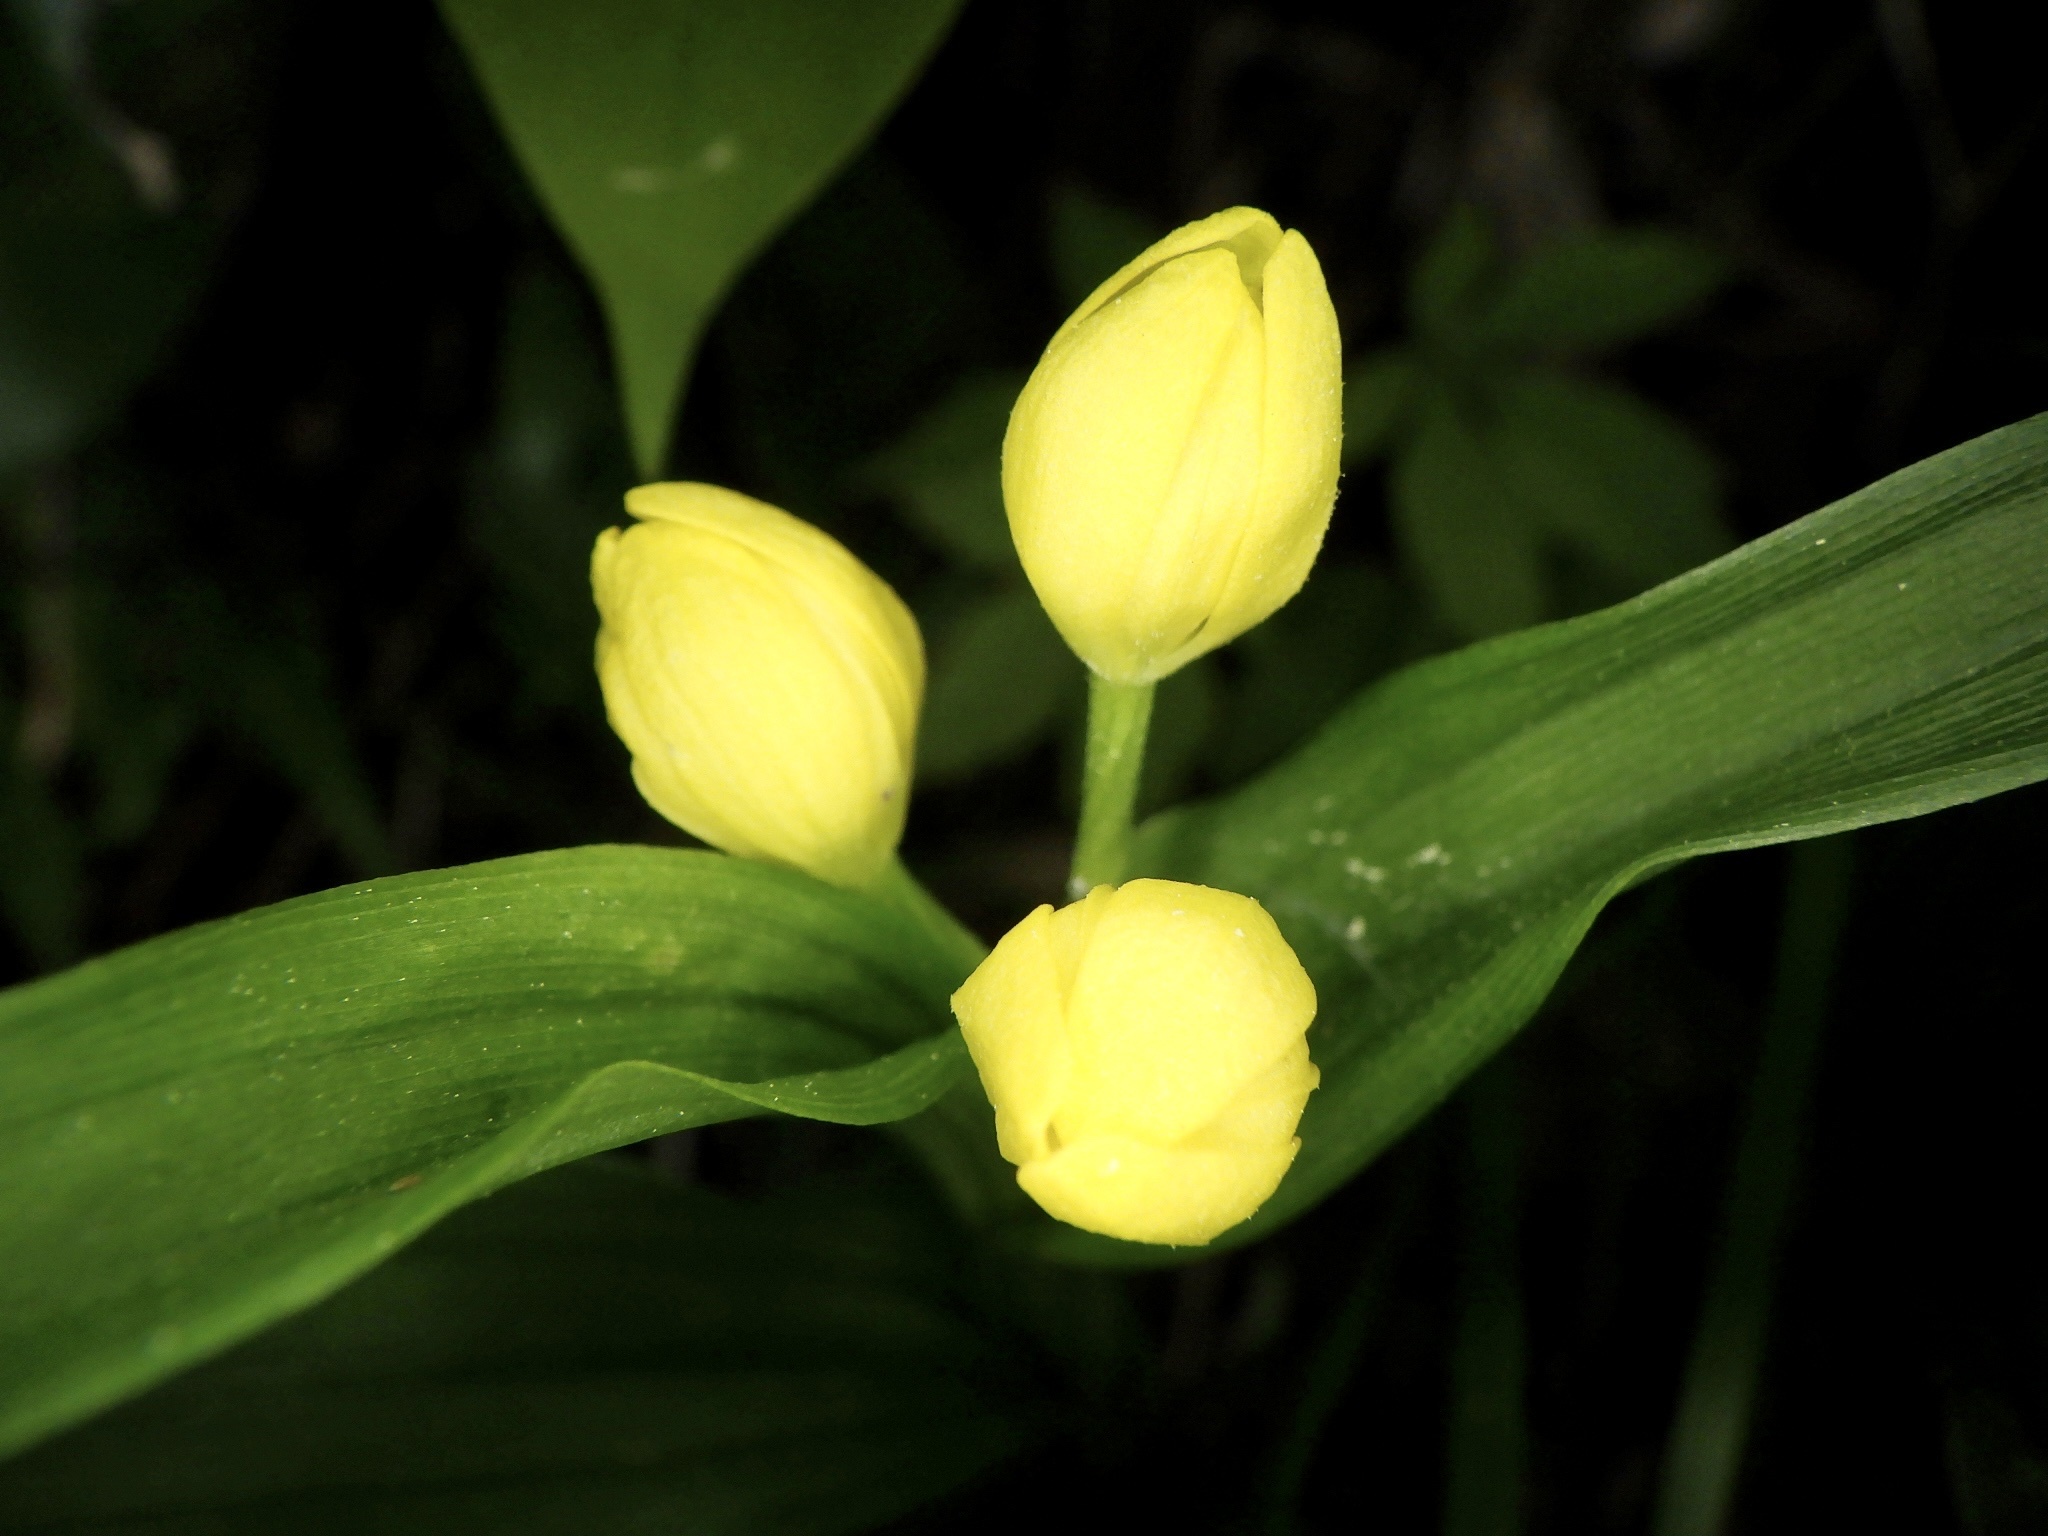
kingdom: Plantae
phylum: Tracheophyta
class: Liliopsida
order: Asparagales
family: Orchidaceae
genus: Cephalanthera
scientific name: Cephalanthera falcata
